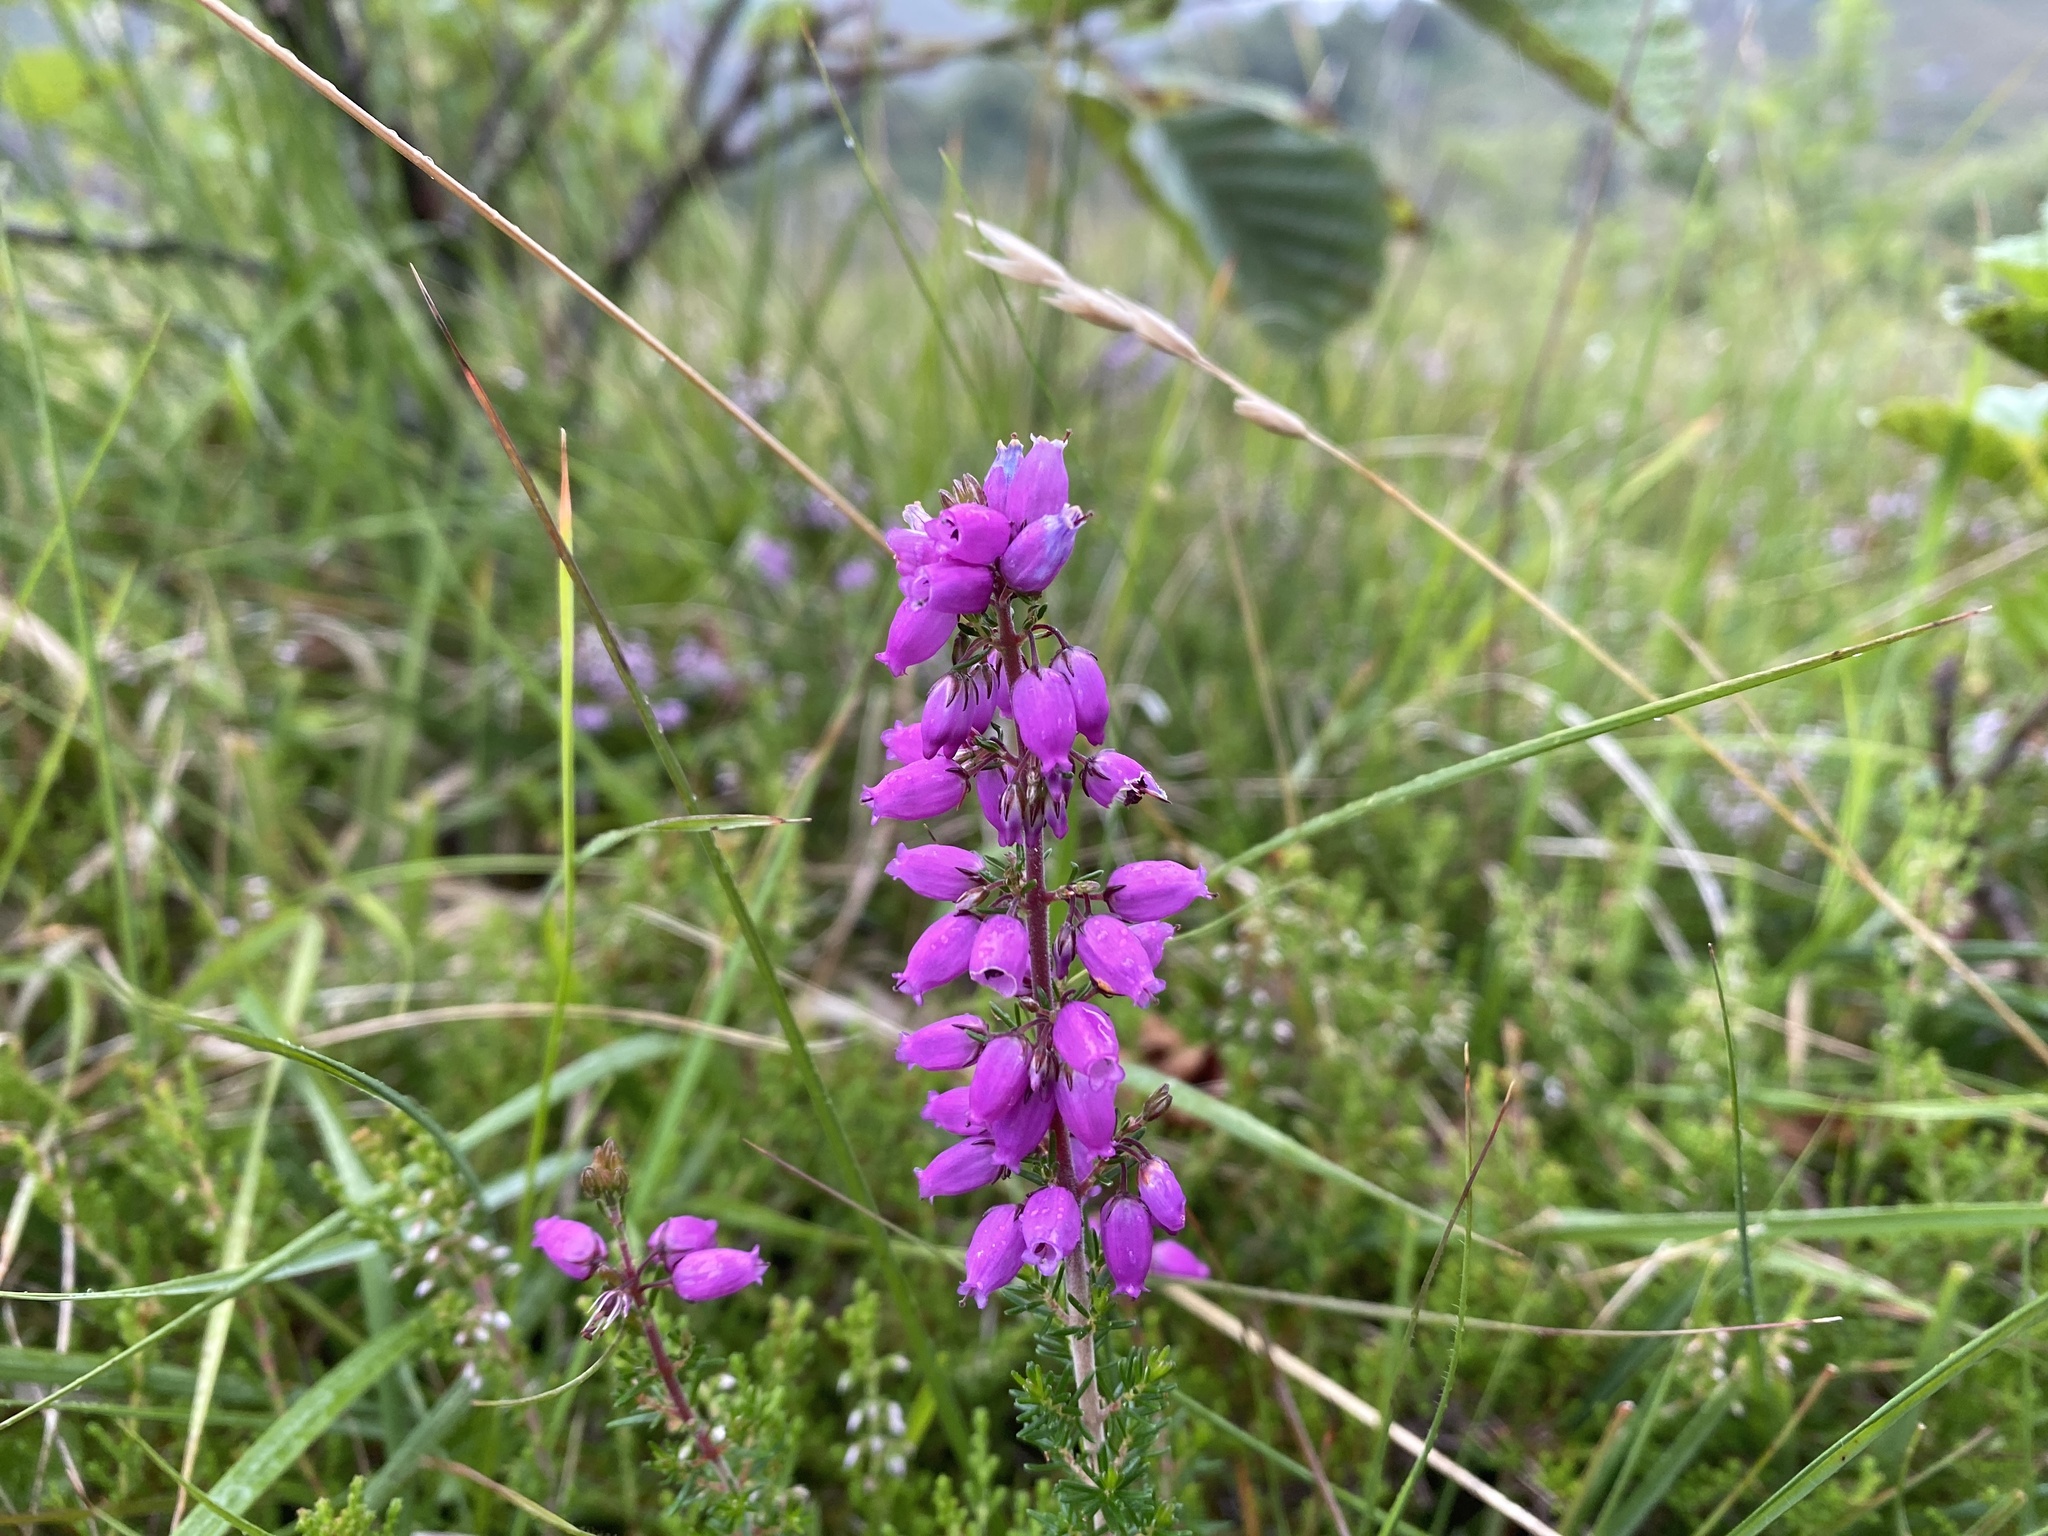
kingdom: Plantae
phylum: Tracheophyta
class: Magnoliopsida
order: Ericales
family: Ericaceae
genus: Erica
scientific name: Erica cinerea
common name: Bell heather
